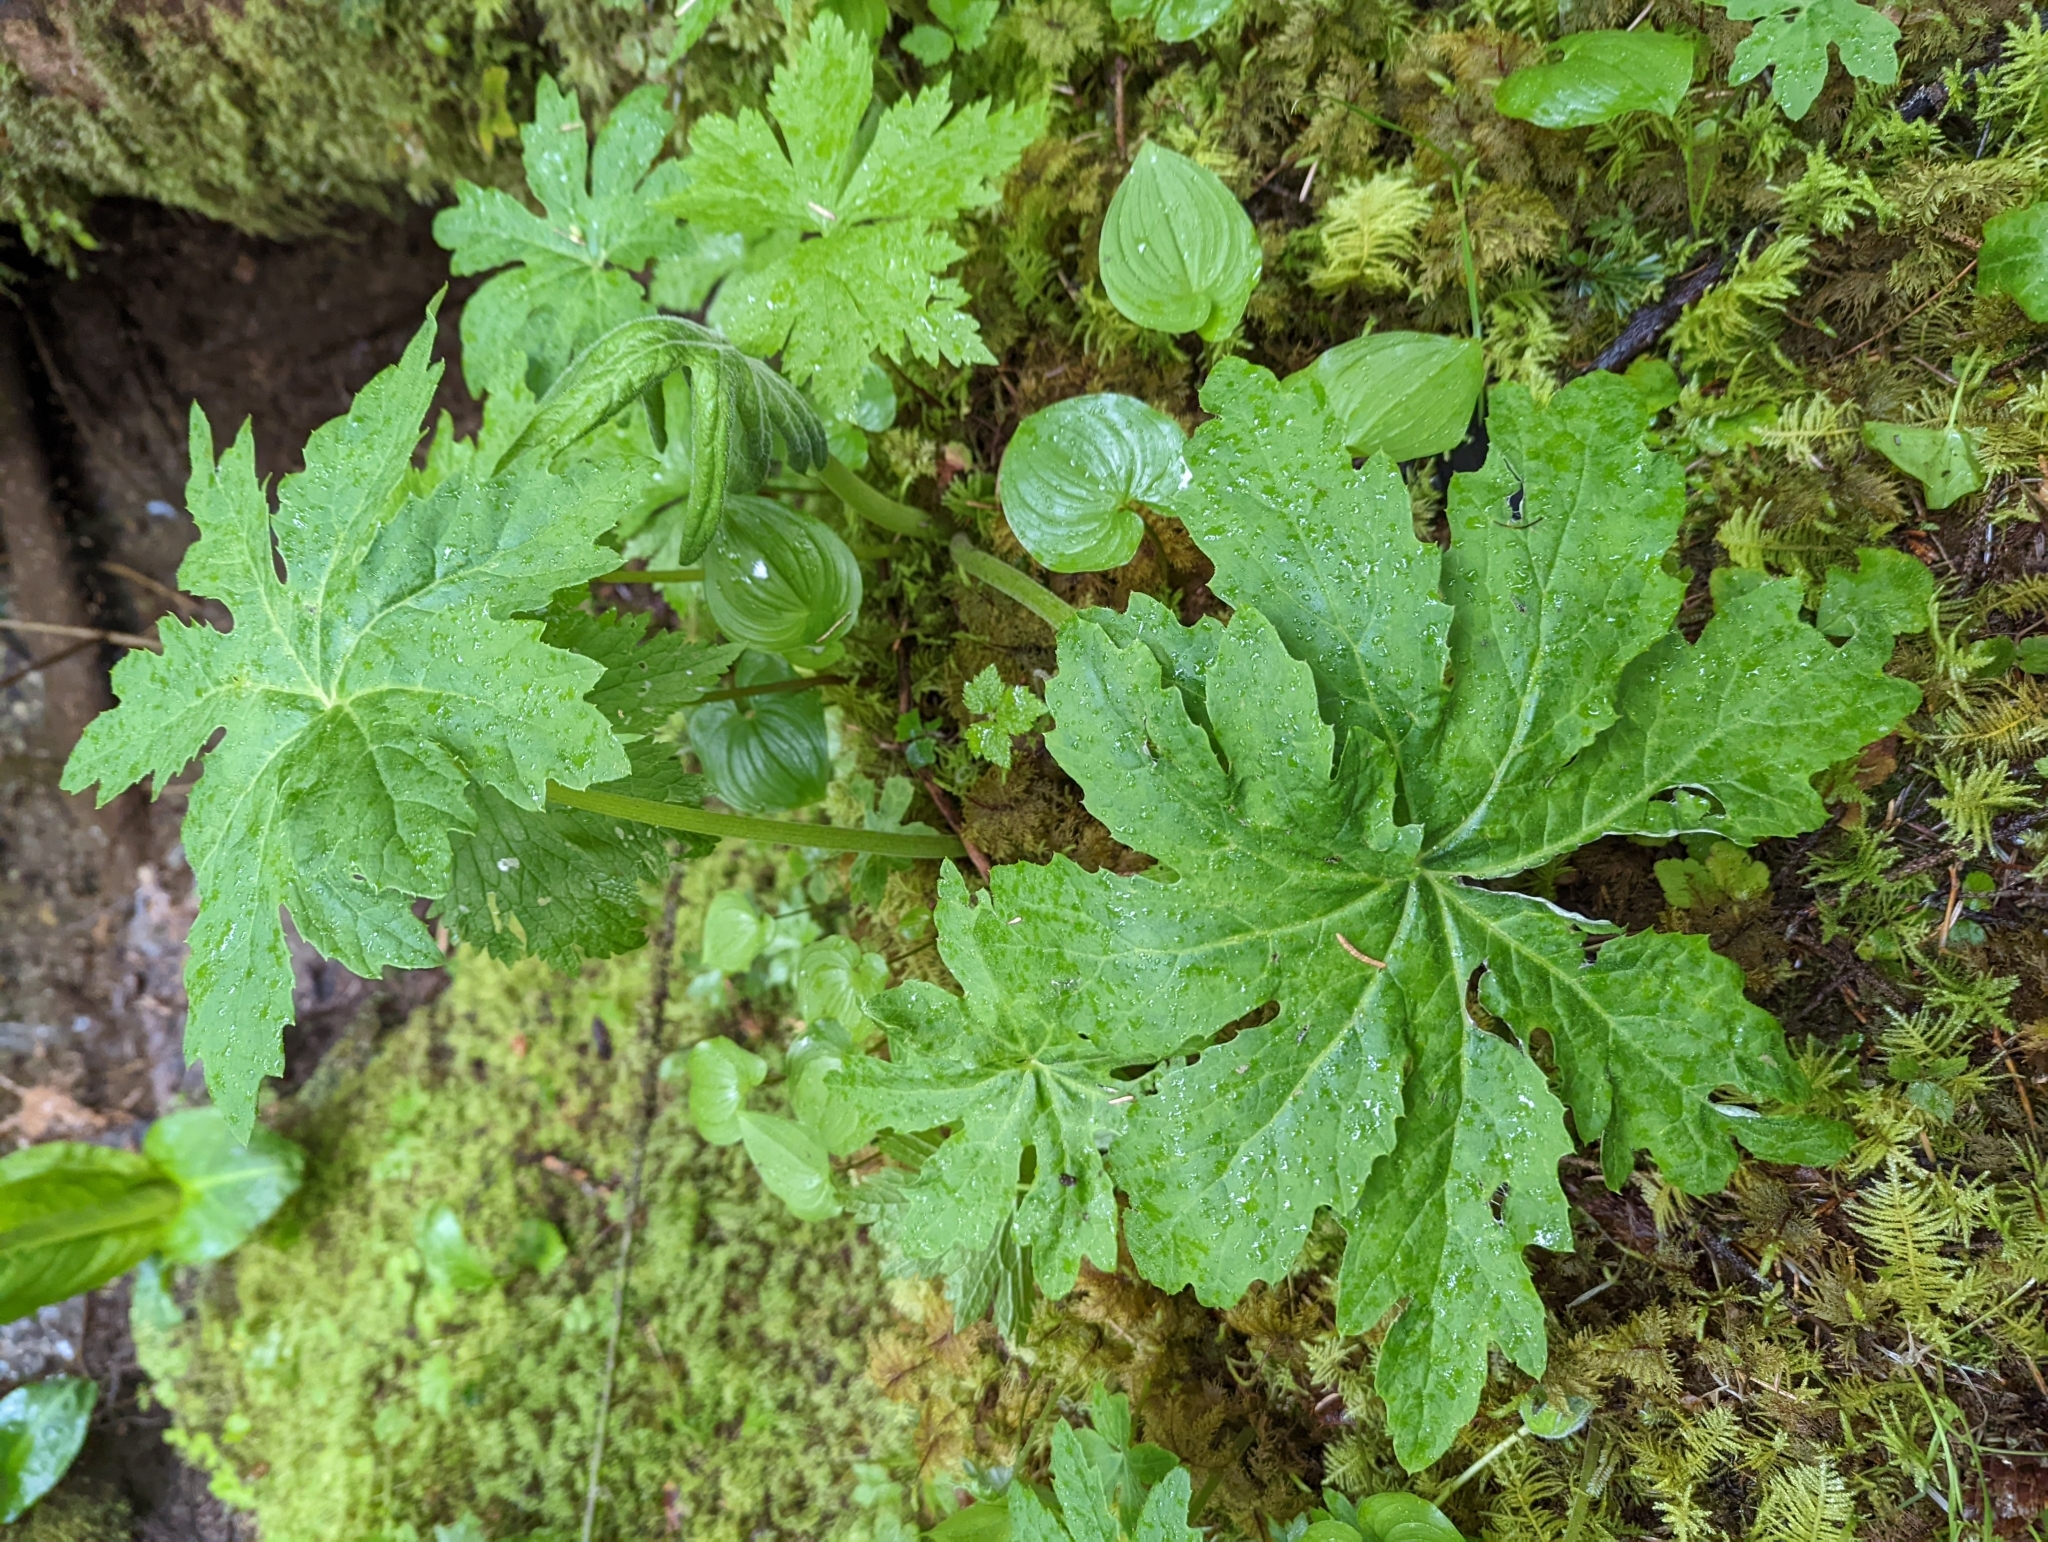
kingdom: Plantae
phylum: Tracheophyta
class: Magnoliopsida
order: Asterales
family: Asteraceae
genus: Petasites
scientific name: Petasites frigidus
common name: Arctic butterbur
